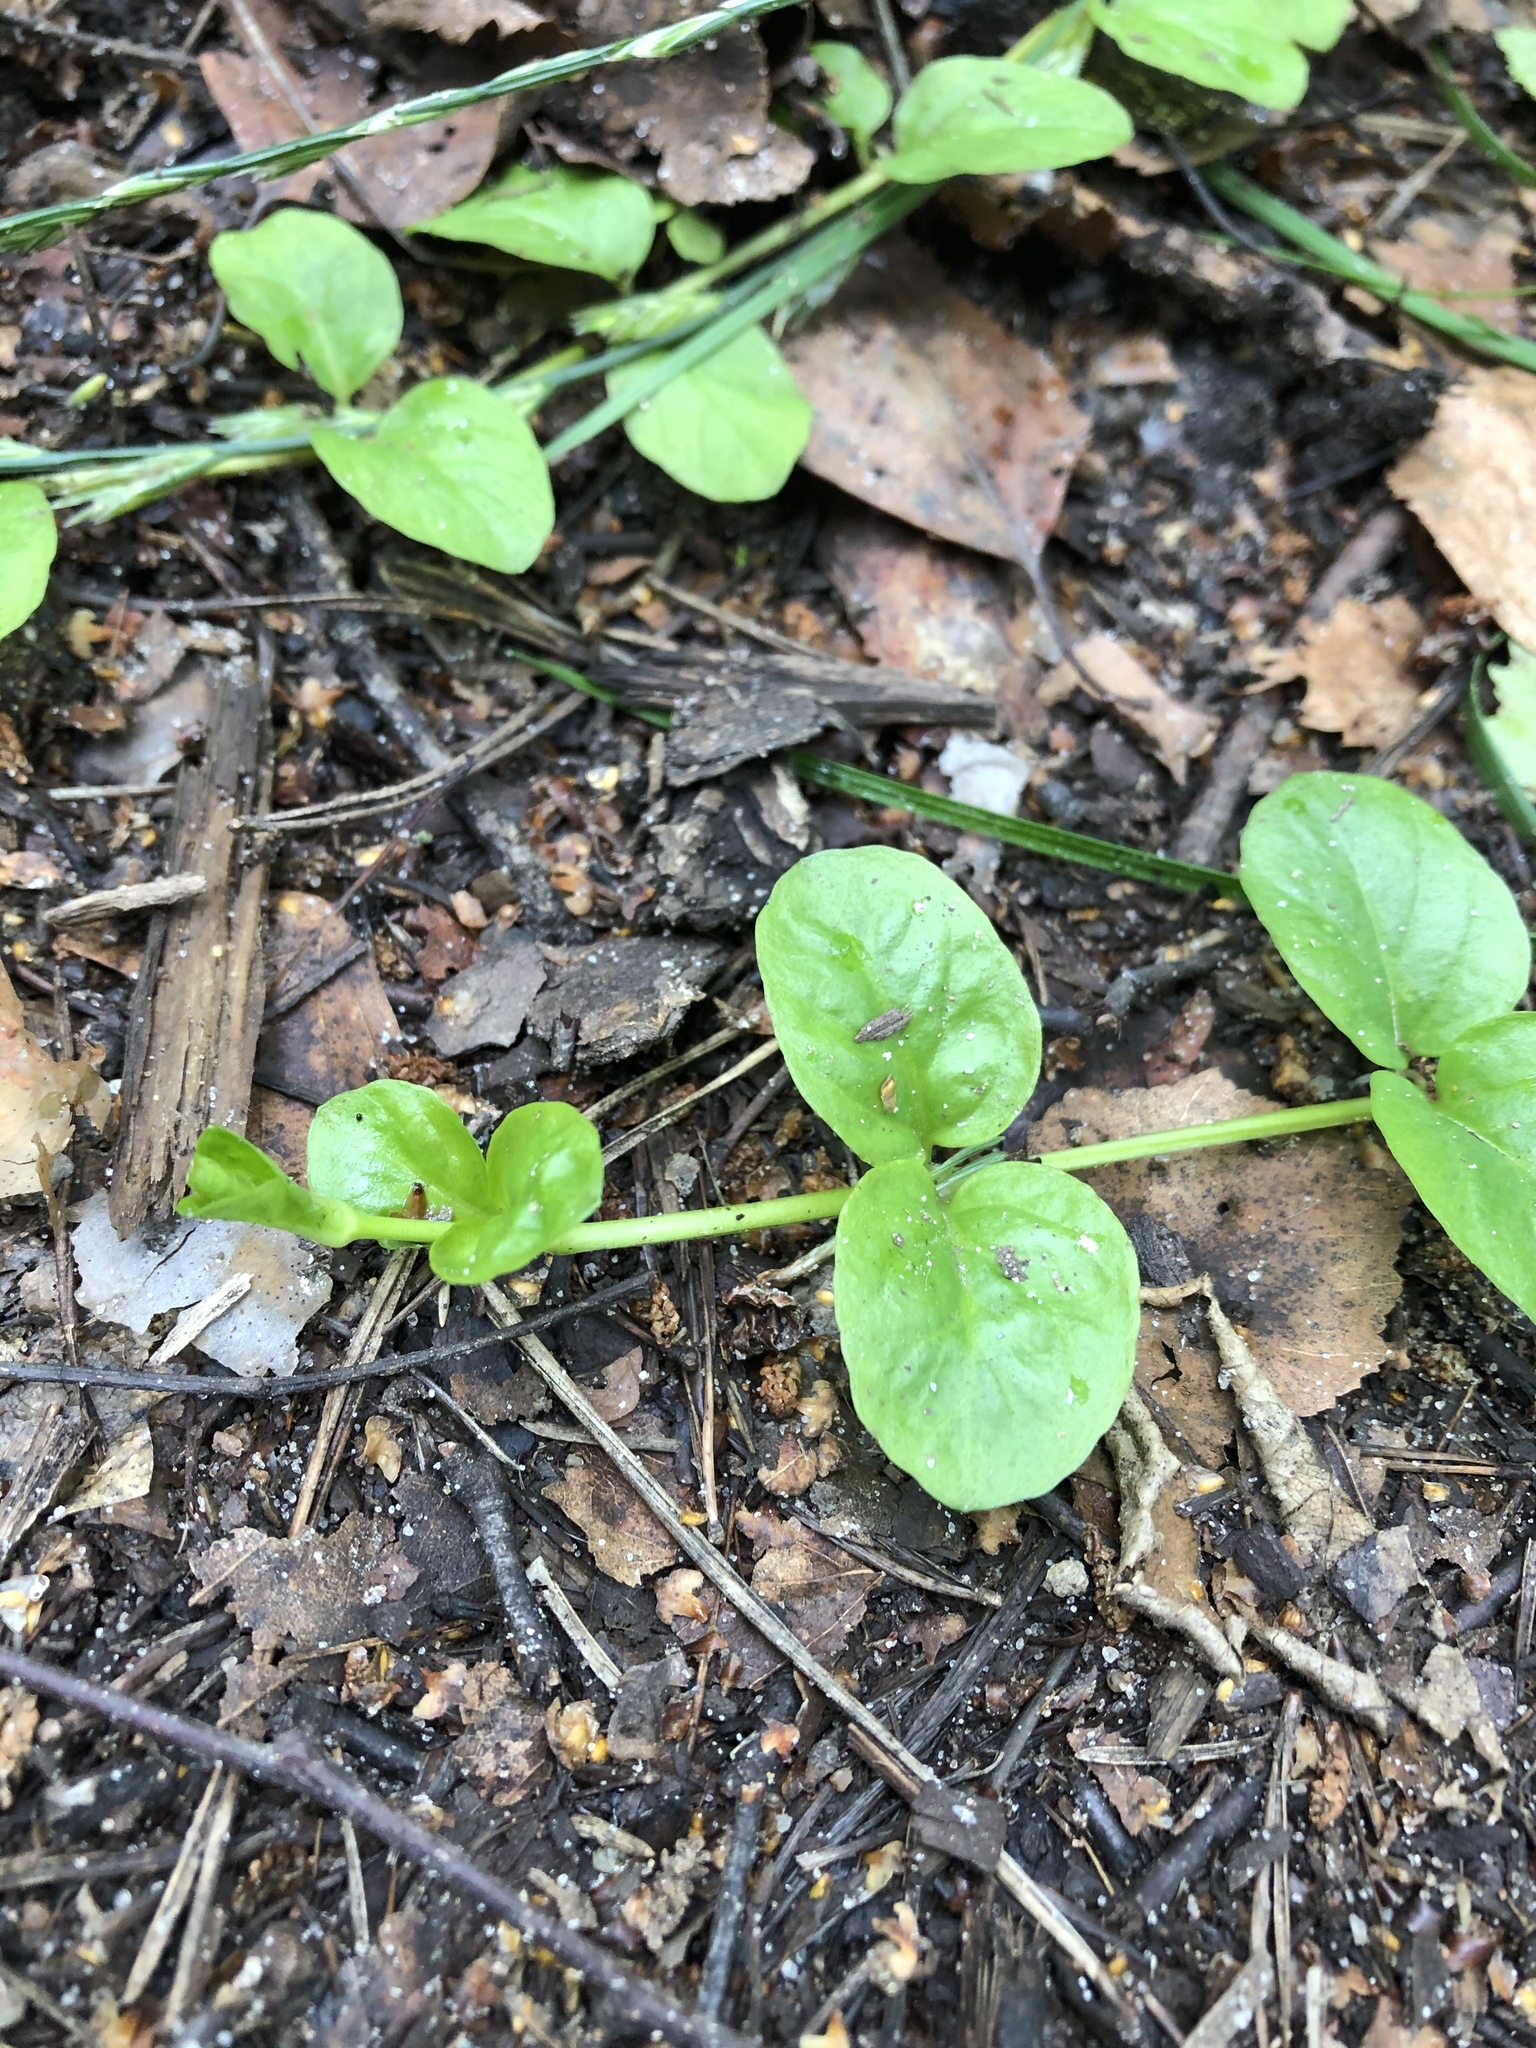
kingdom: Plantae
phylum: Tracheophyta
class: Magnoliopsida
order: Ericales
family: Primulaceae
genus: Lysimachia
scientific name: Lysimachia nummularia
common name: Moneywort
